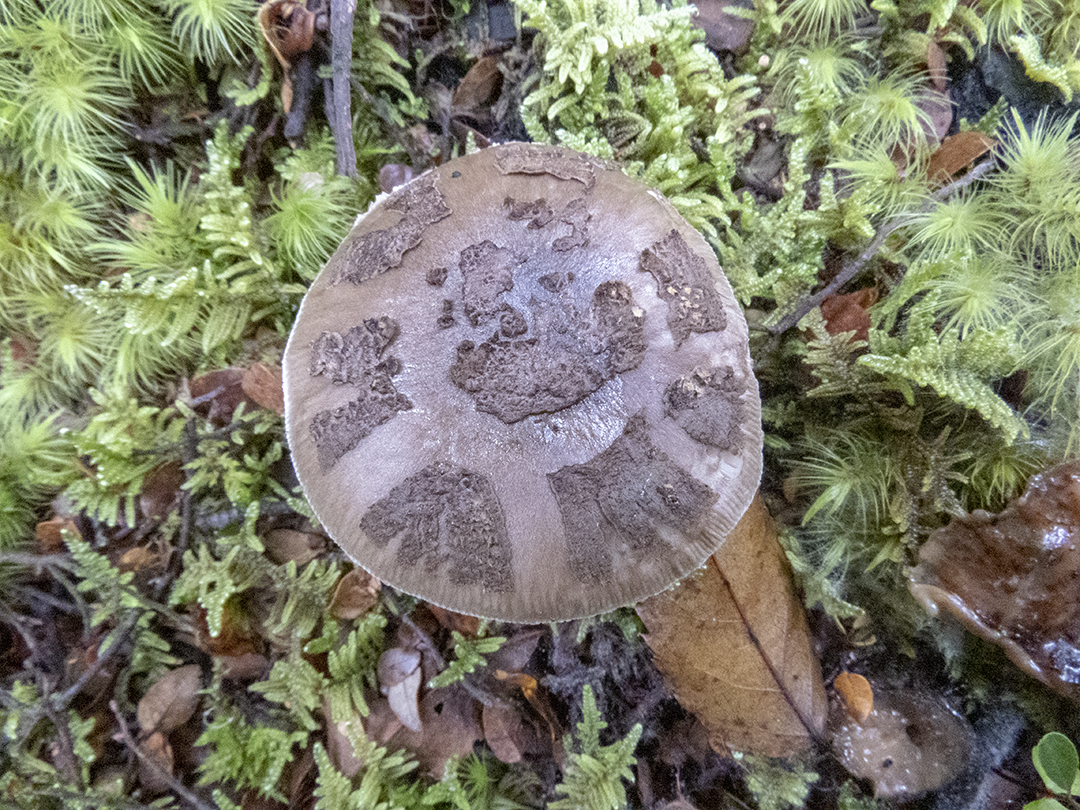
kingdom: Fungi
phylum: Basidiomycota
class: Agaricomycetes
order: Agaricales
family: Amanitaceae
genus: Amanita
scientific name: Amanita nothofagi
